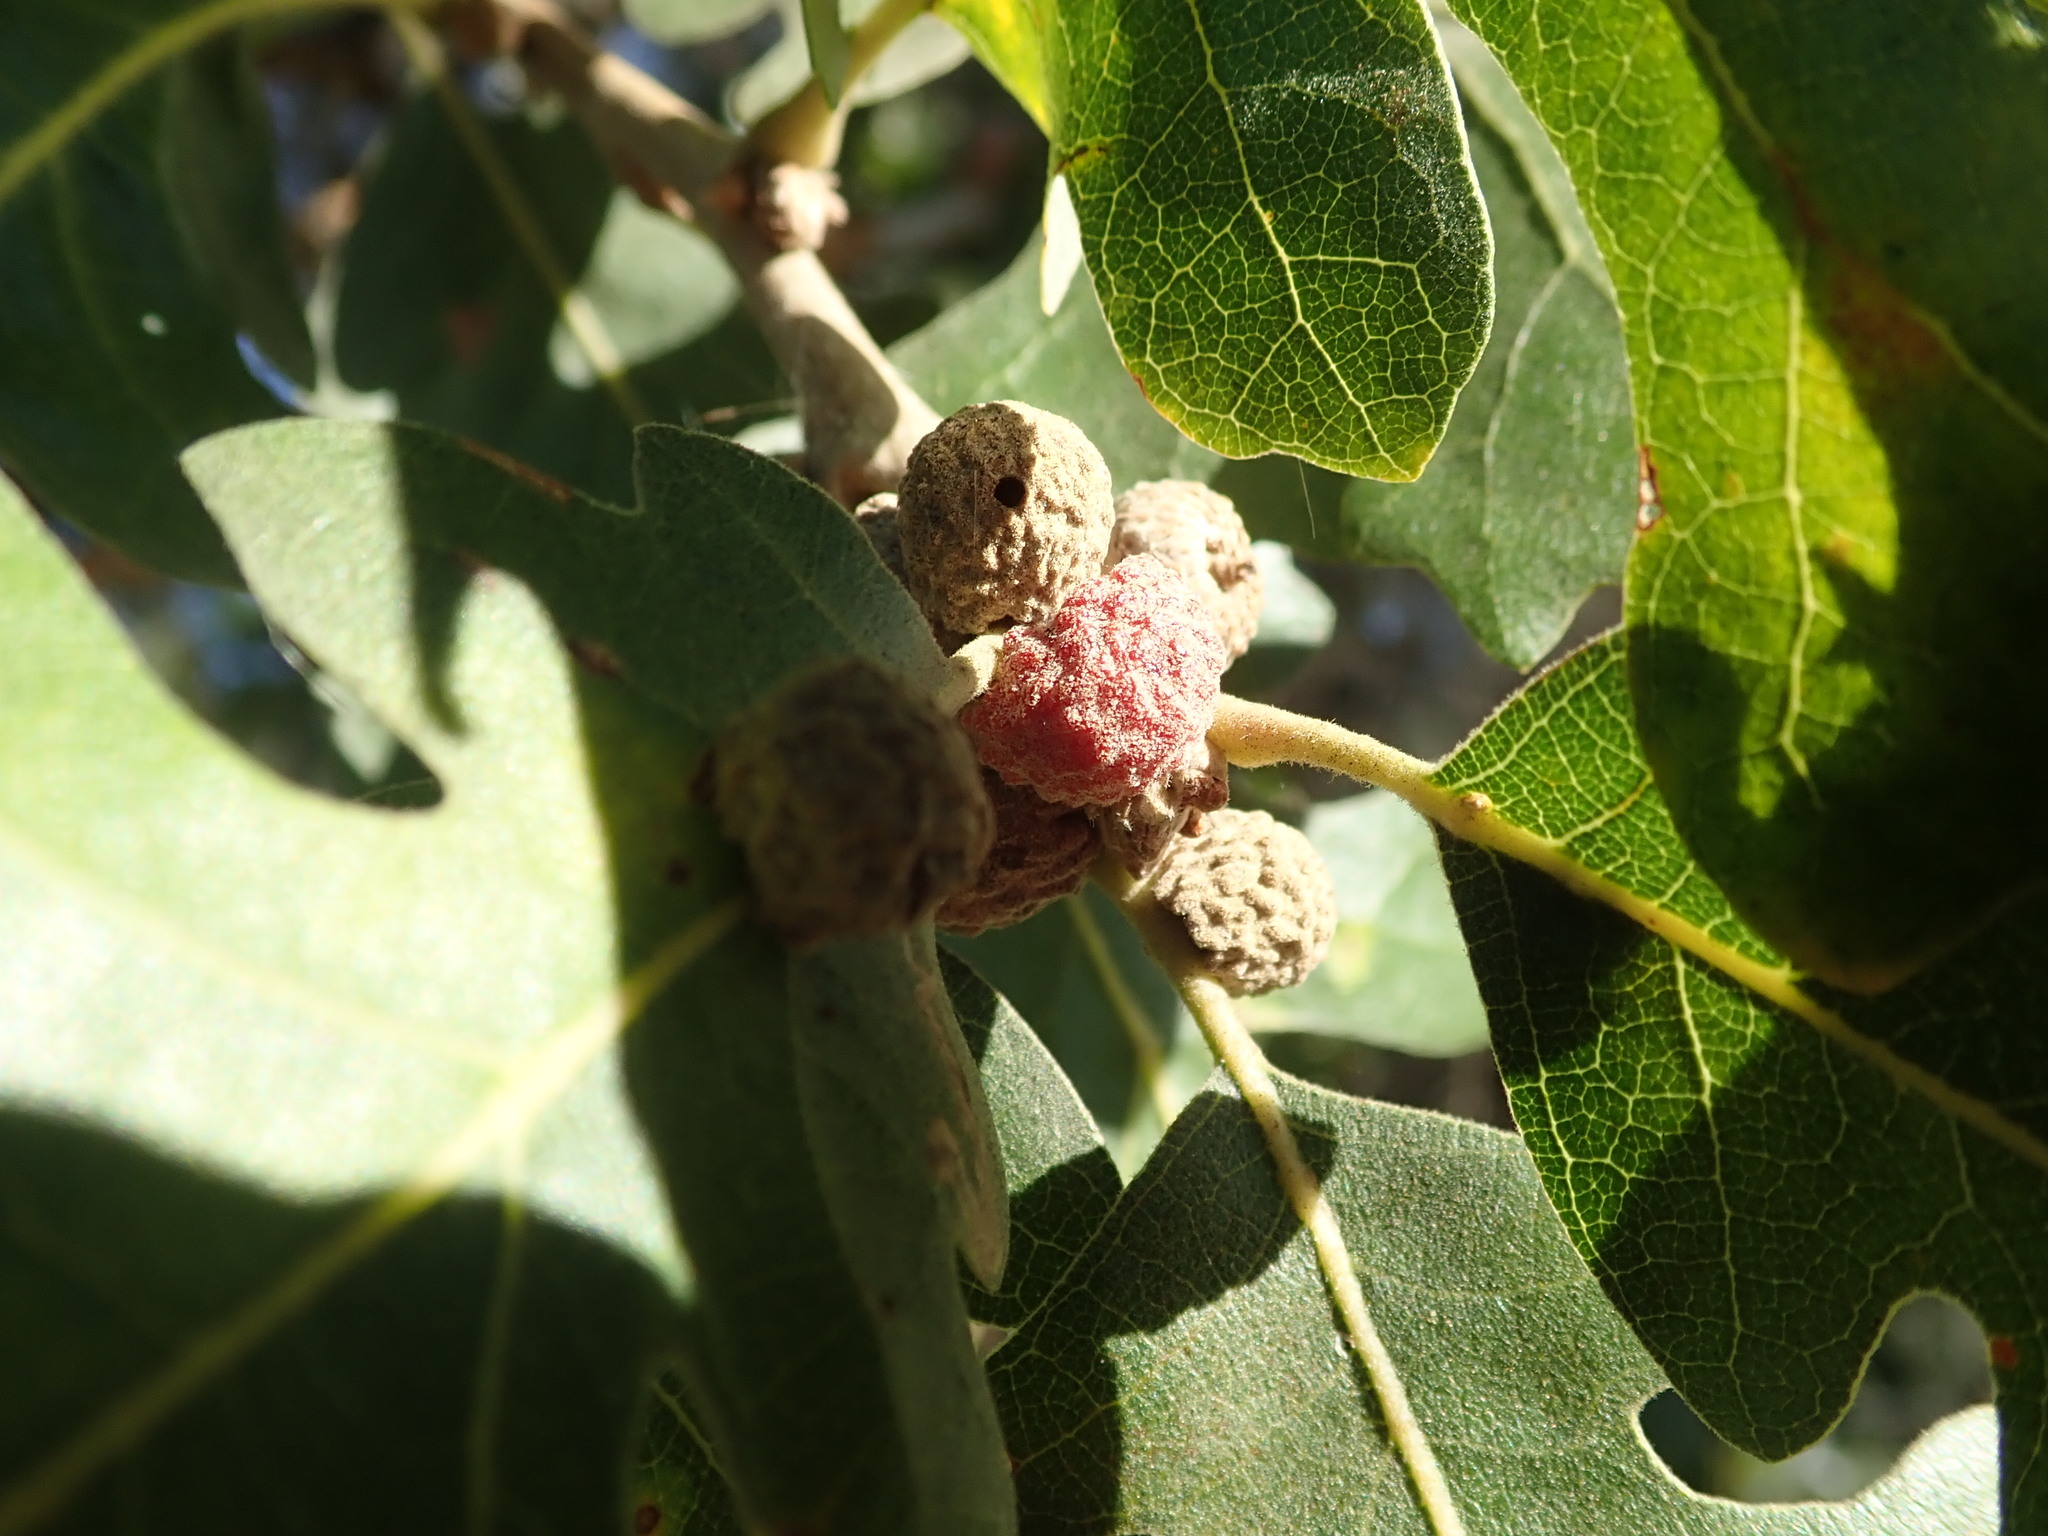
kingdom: Animalia
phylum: Arthropoda
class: Insecta
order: Hymenoptera
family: Cynipidae
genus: Cynips
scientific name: Cynips conspicua
